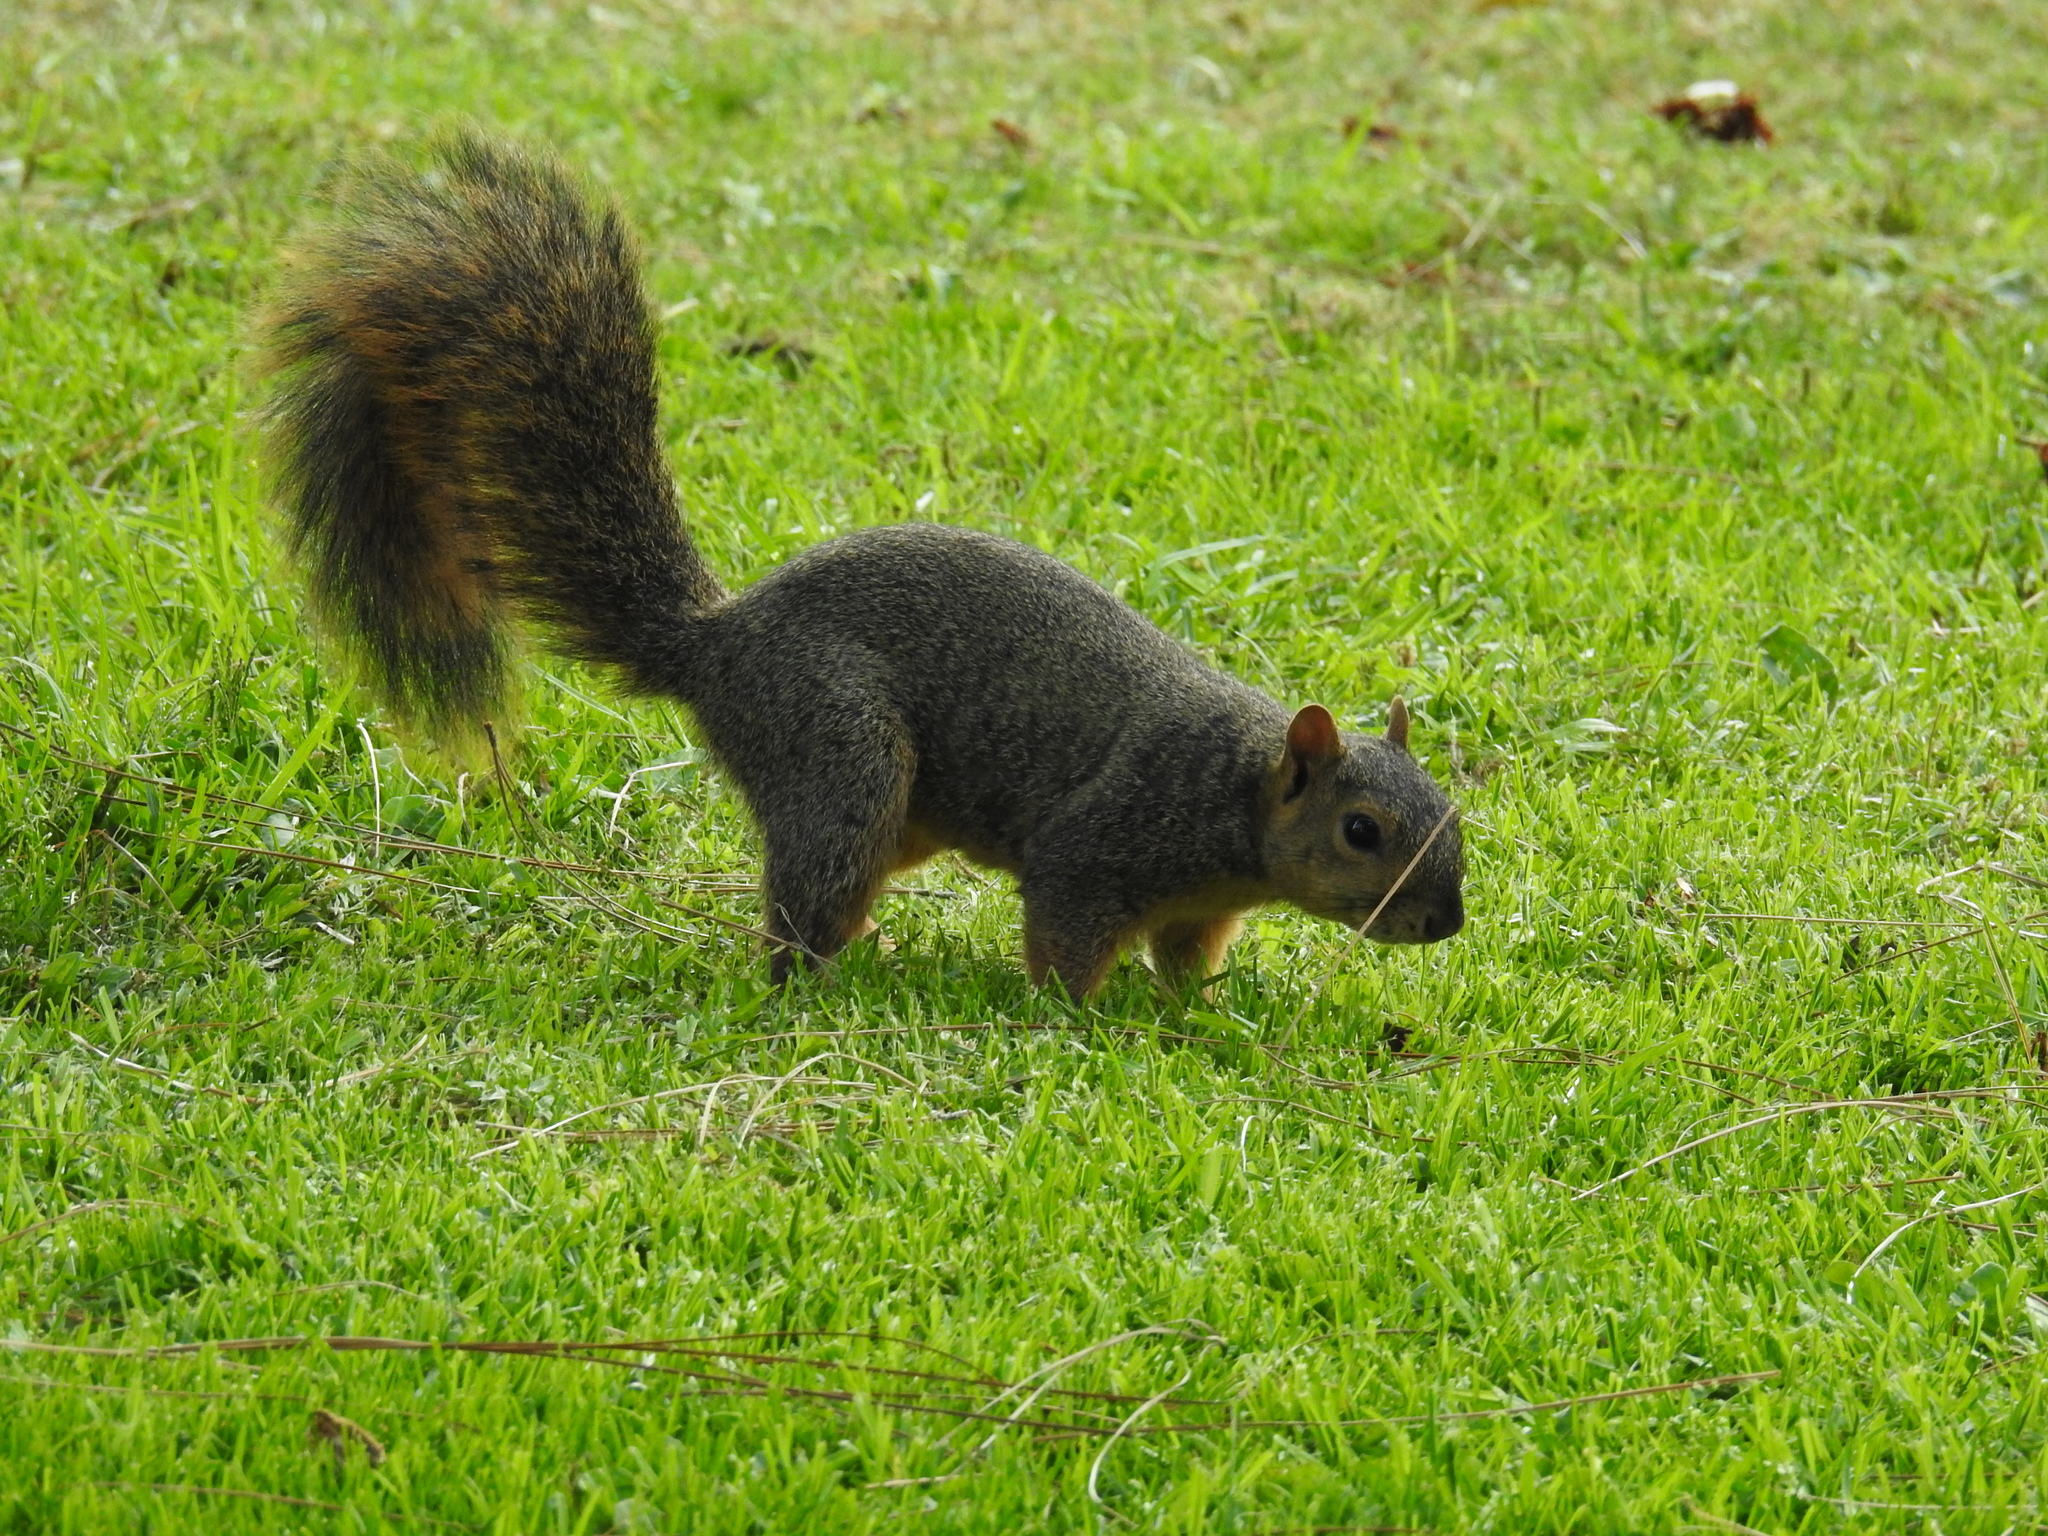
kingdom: Animalia
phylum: Chordata
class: Mammalia
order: Rodentia
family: Sciuridae
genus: Sciurus
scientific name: Sciurus niger
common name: Fox squirrel
